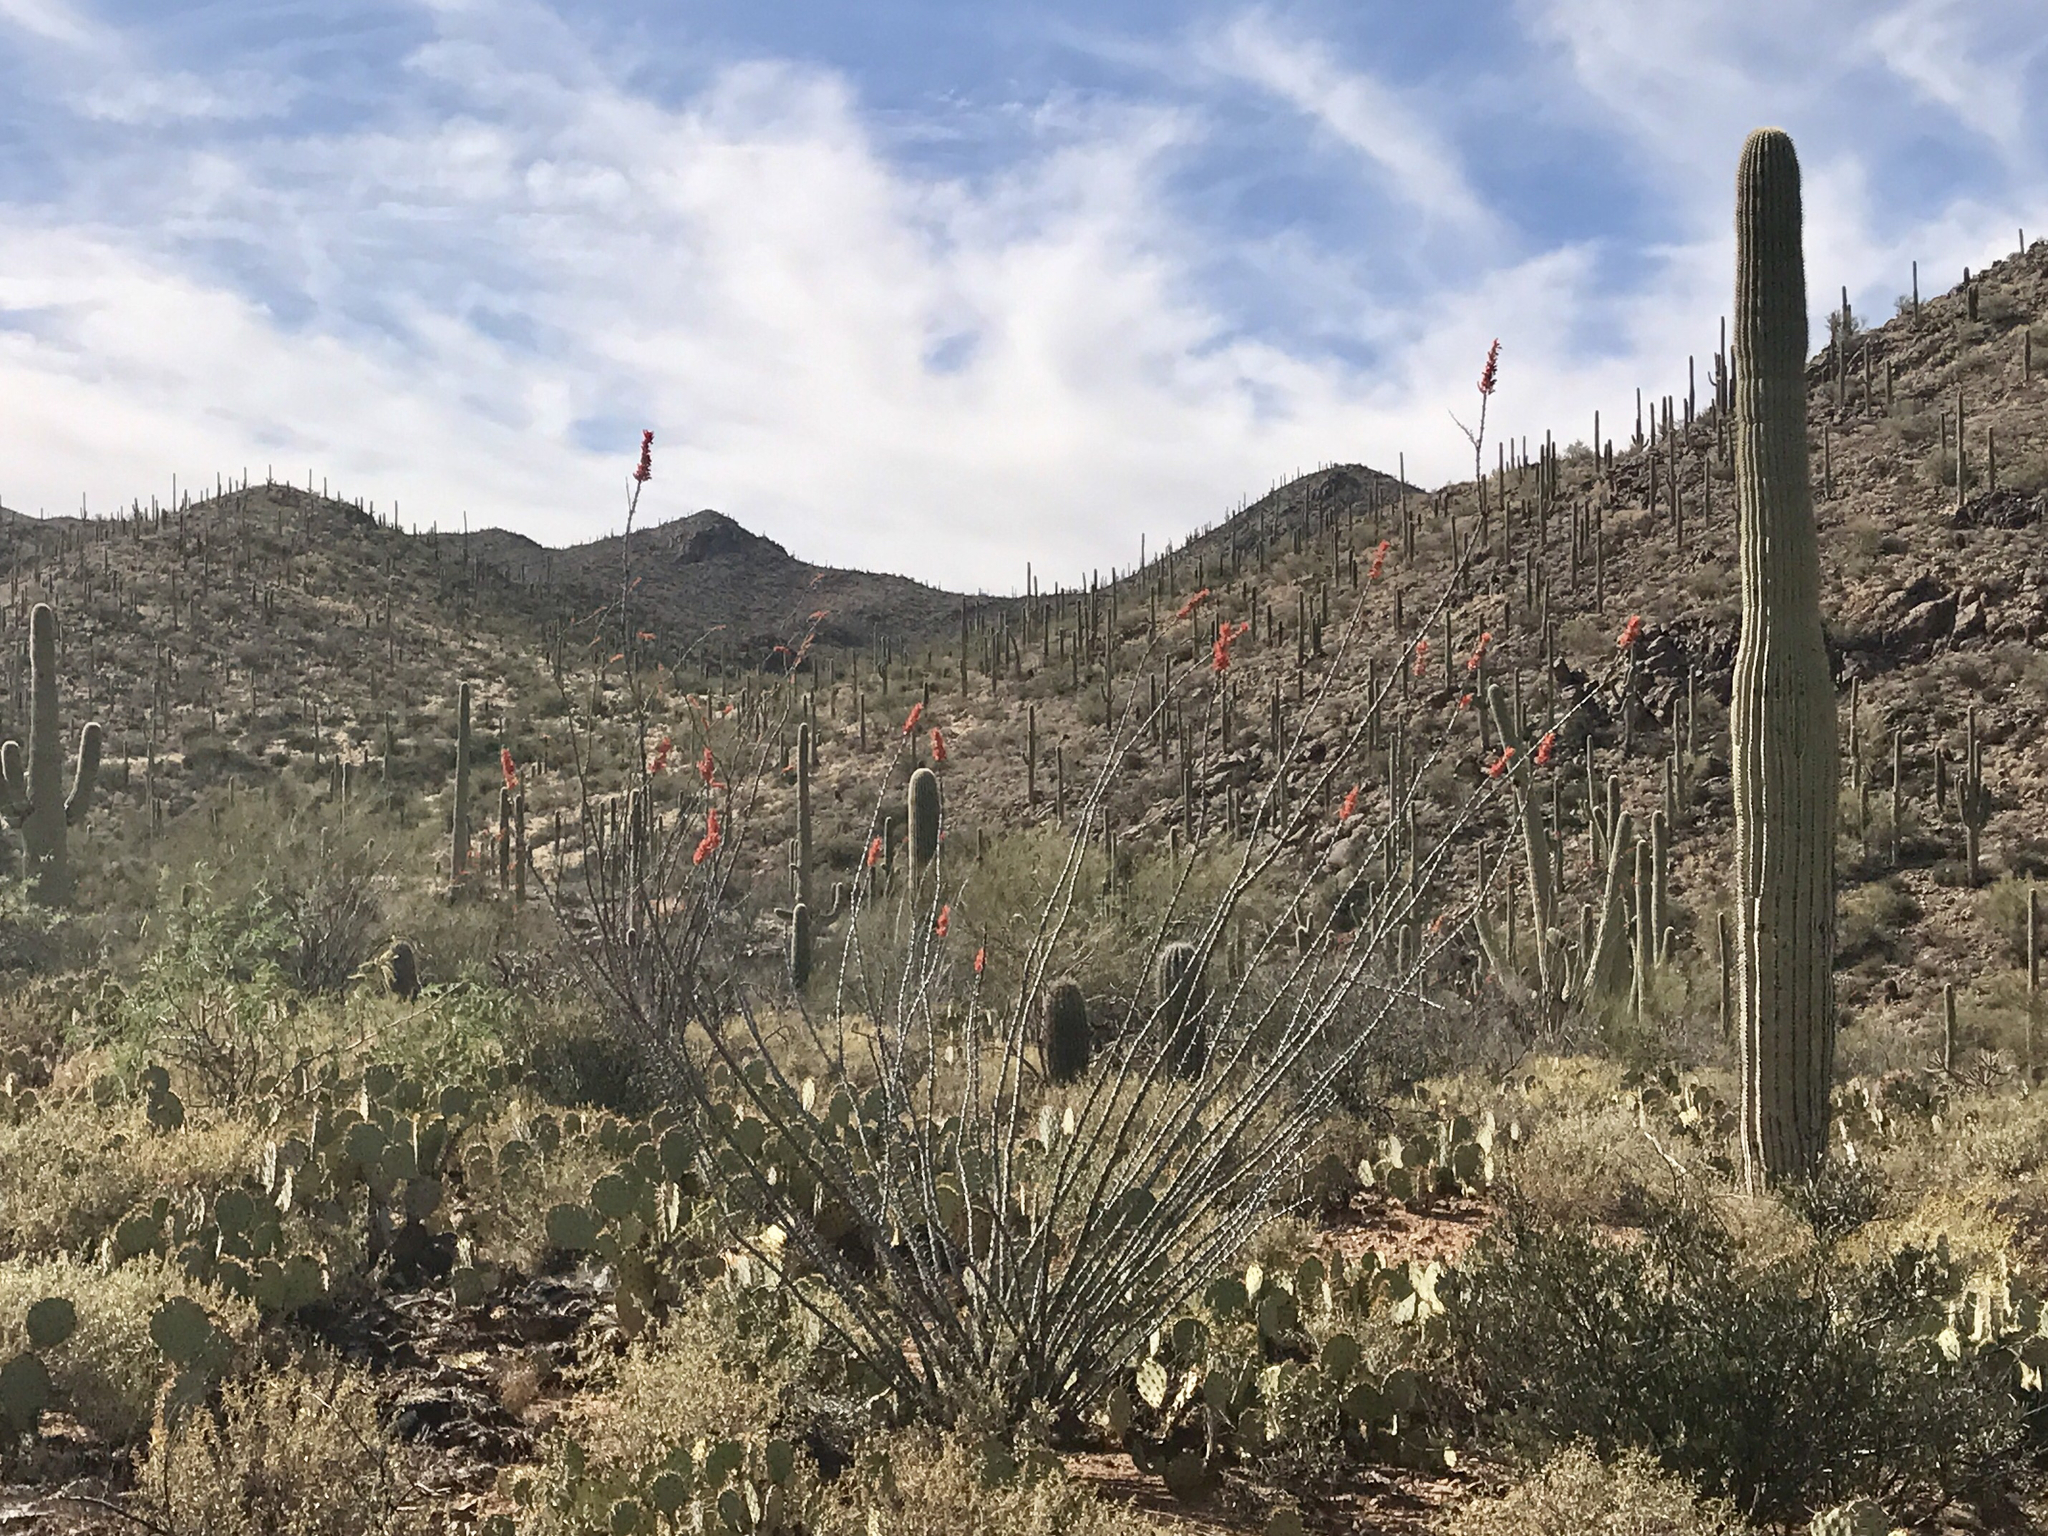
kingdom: Plantae
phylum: Tracheophyta
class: Magnoliopsida
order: Ericales
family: Fouquieriaceae
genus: Fouquieria
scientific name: Fouquieria splendens
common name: Vine-cactus
